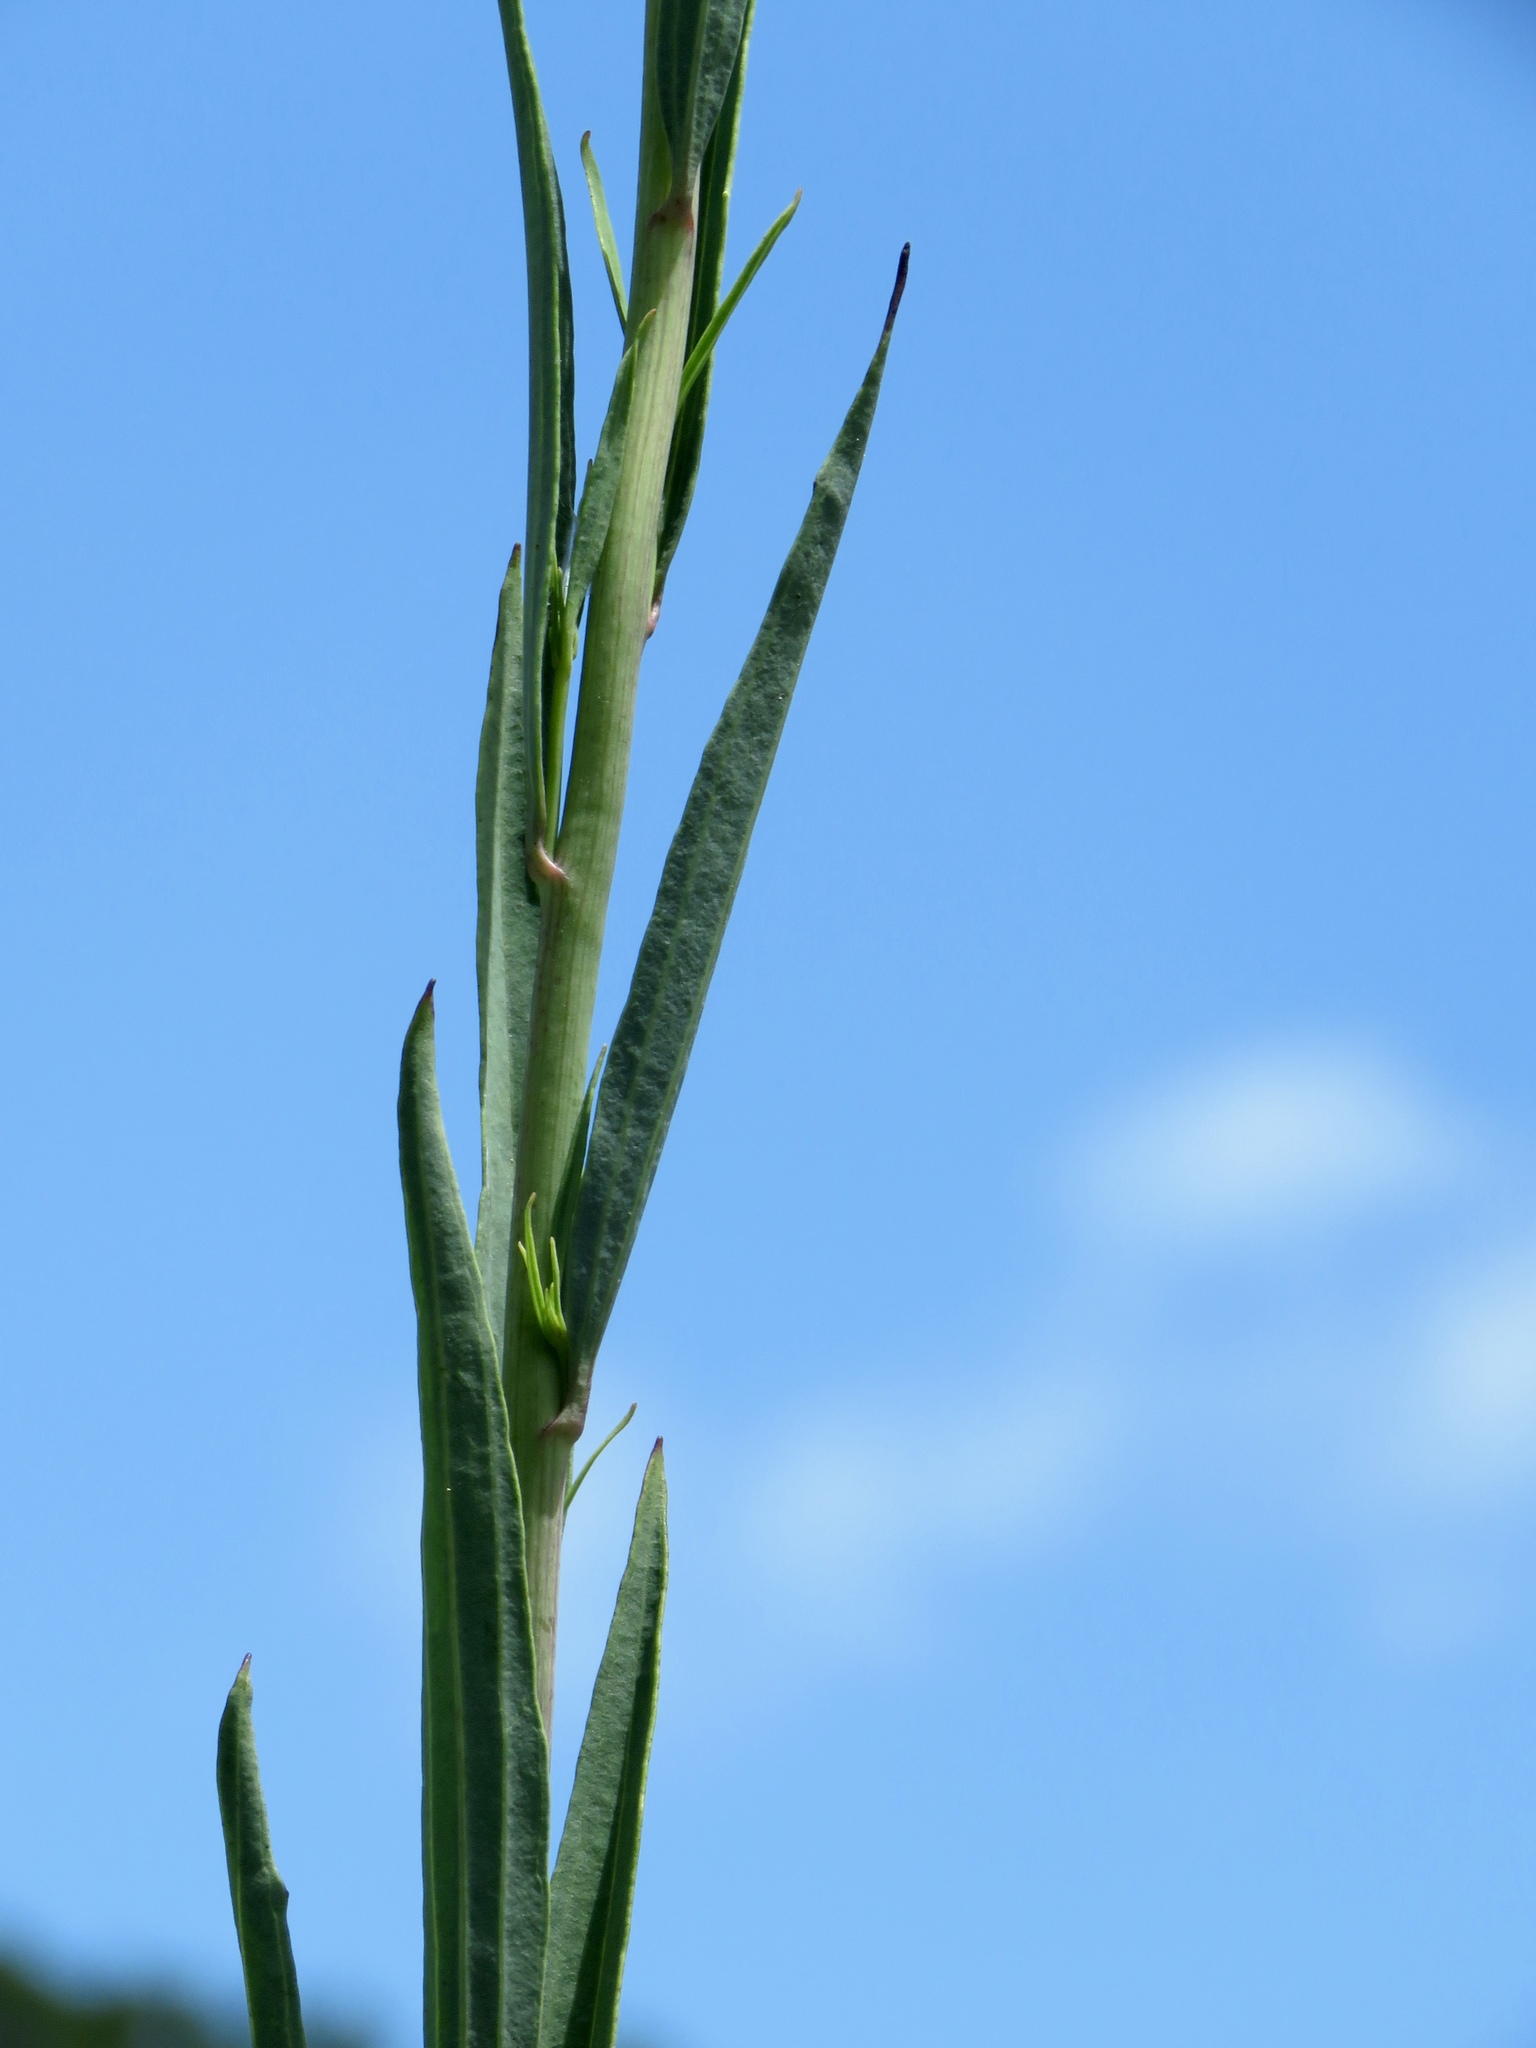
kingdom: Plantae
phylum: Tracheophyta
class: Magnoliopsida
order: Asterales
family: Asteraceae
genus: Arnoglossum
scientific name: Arnoglossum ovatum
